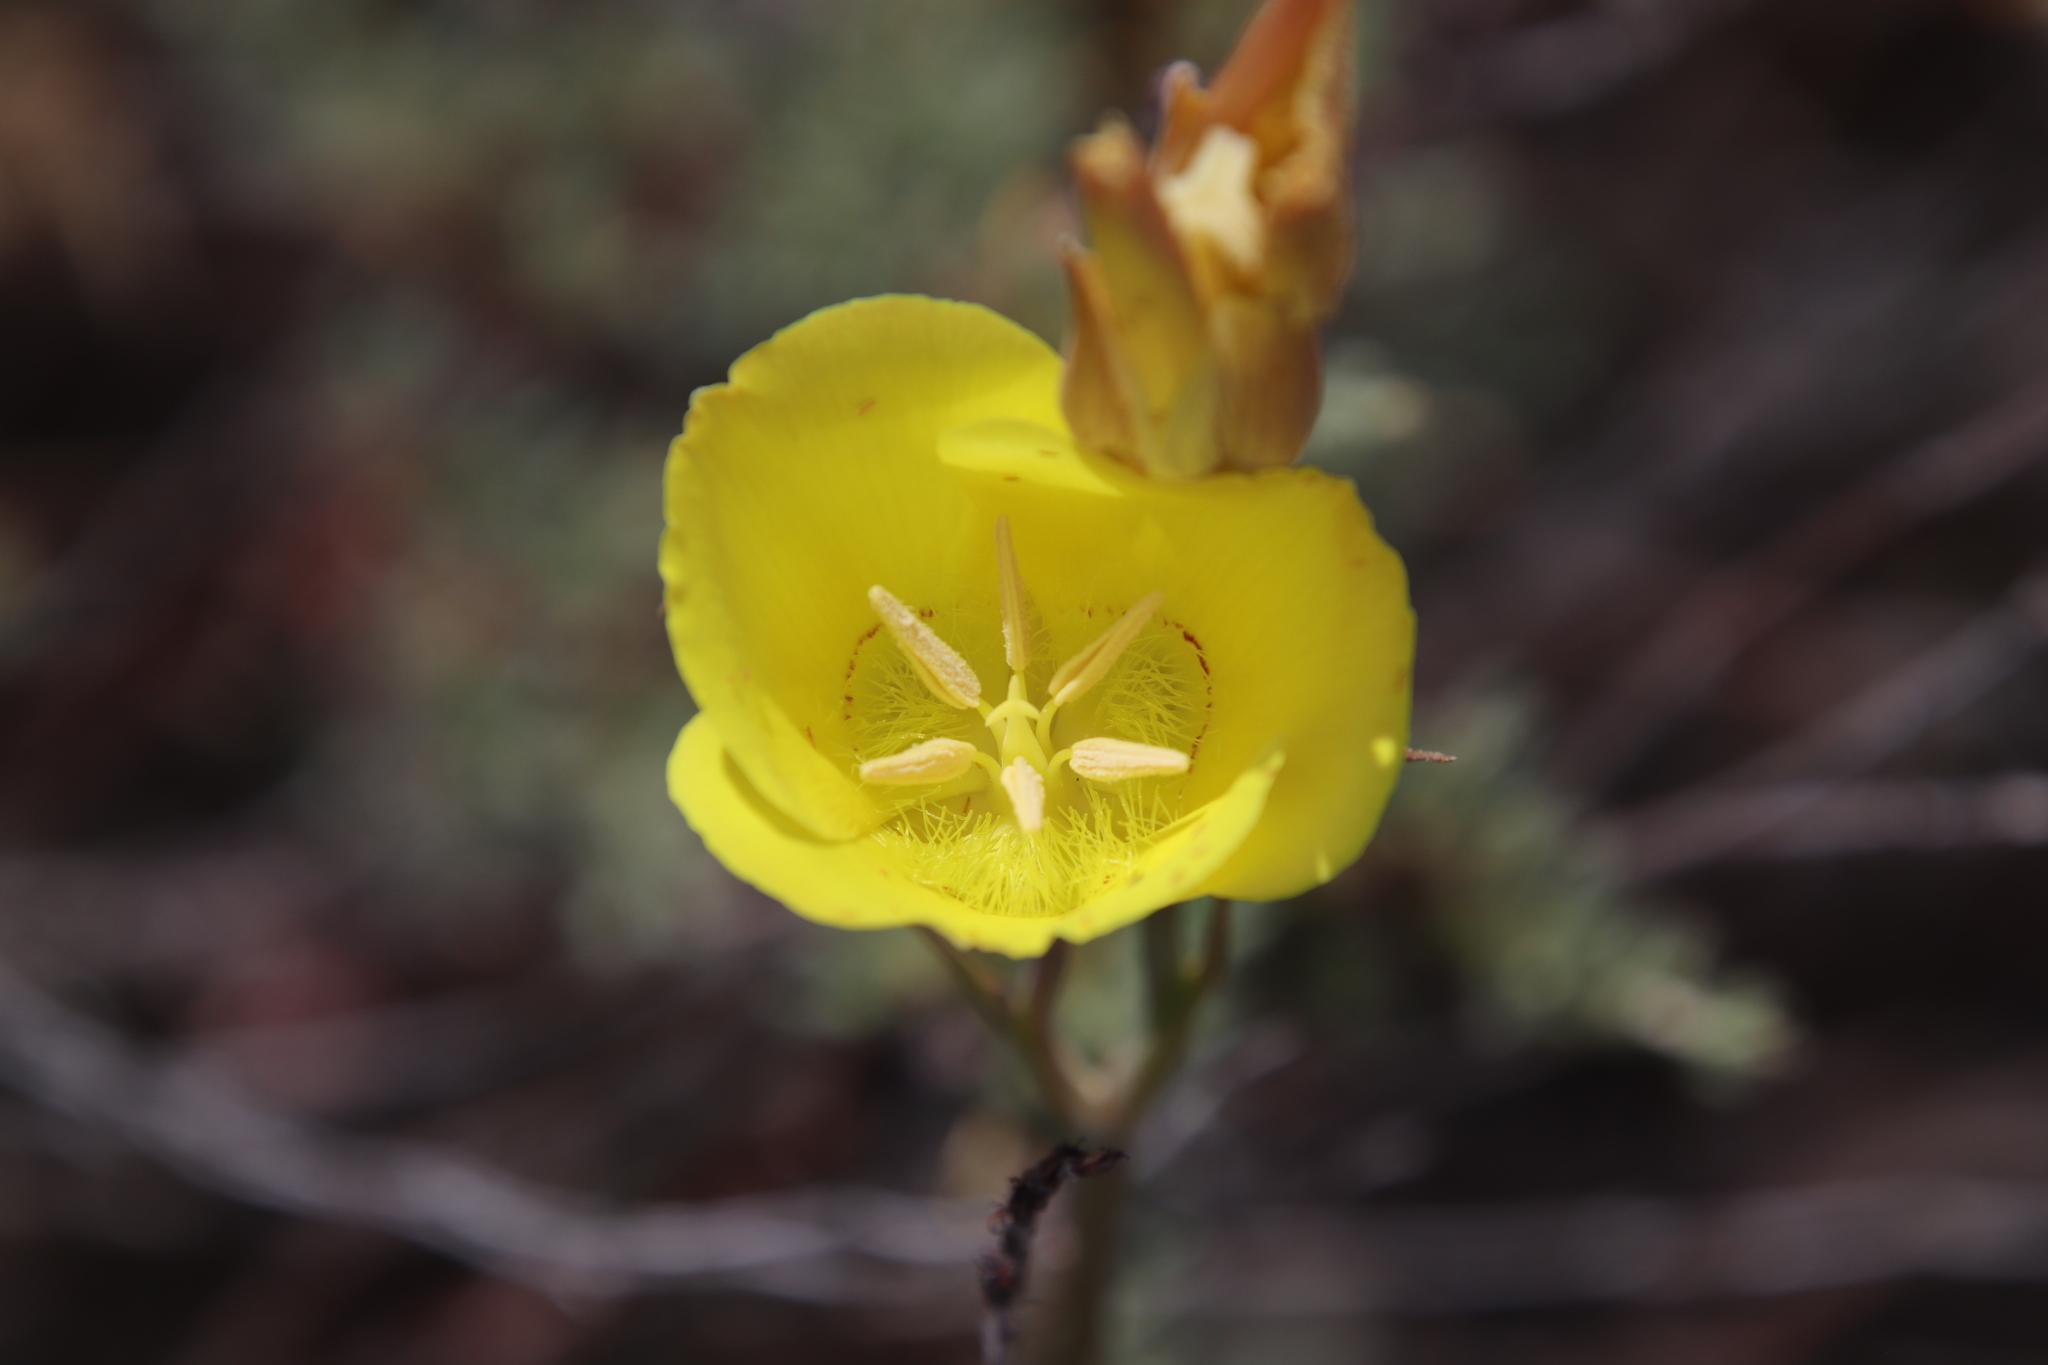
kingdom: Plantae
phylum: Tracheophyta
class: Liliopsida
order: Liliales
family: Liliaceae
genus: Calochortus
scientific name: Calochortus concolor
